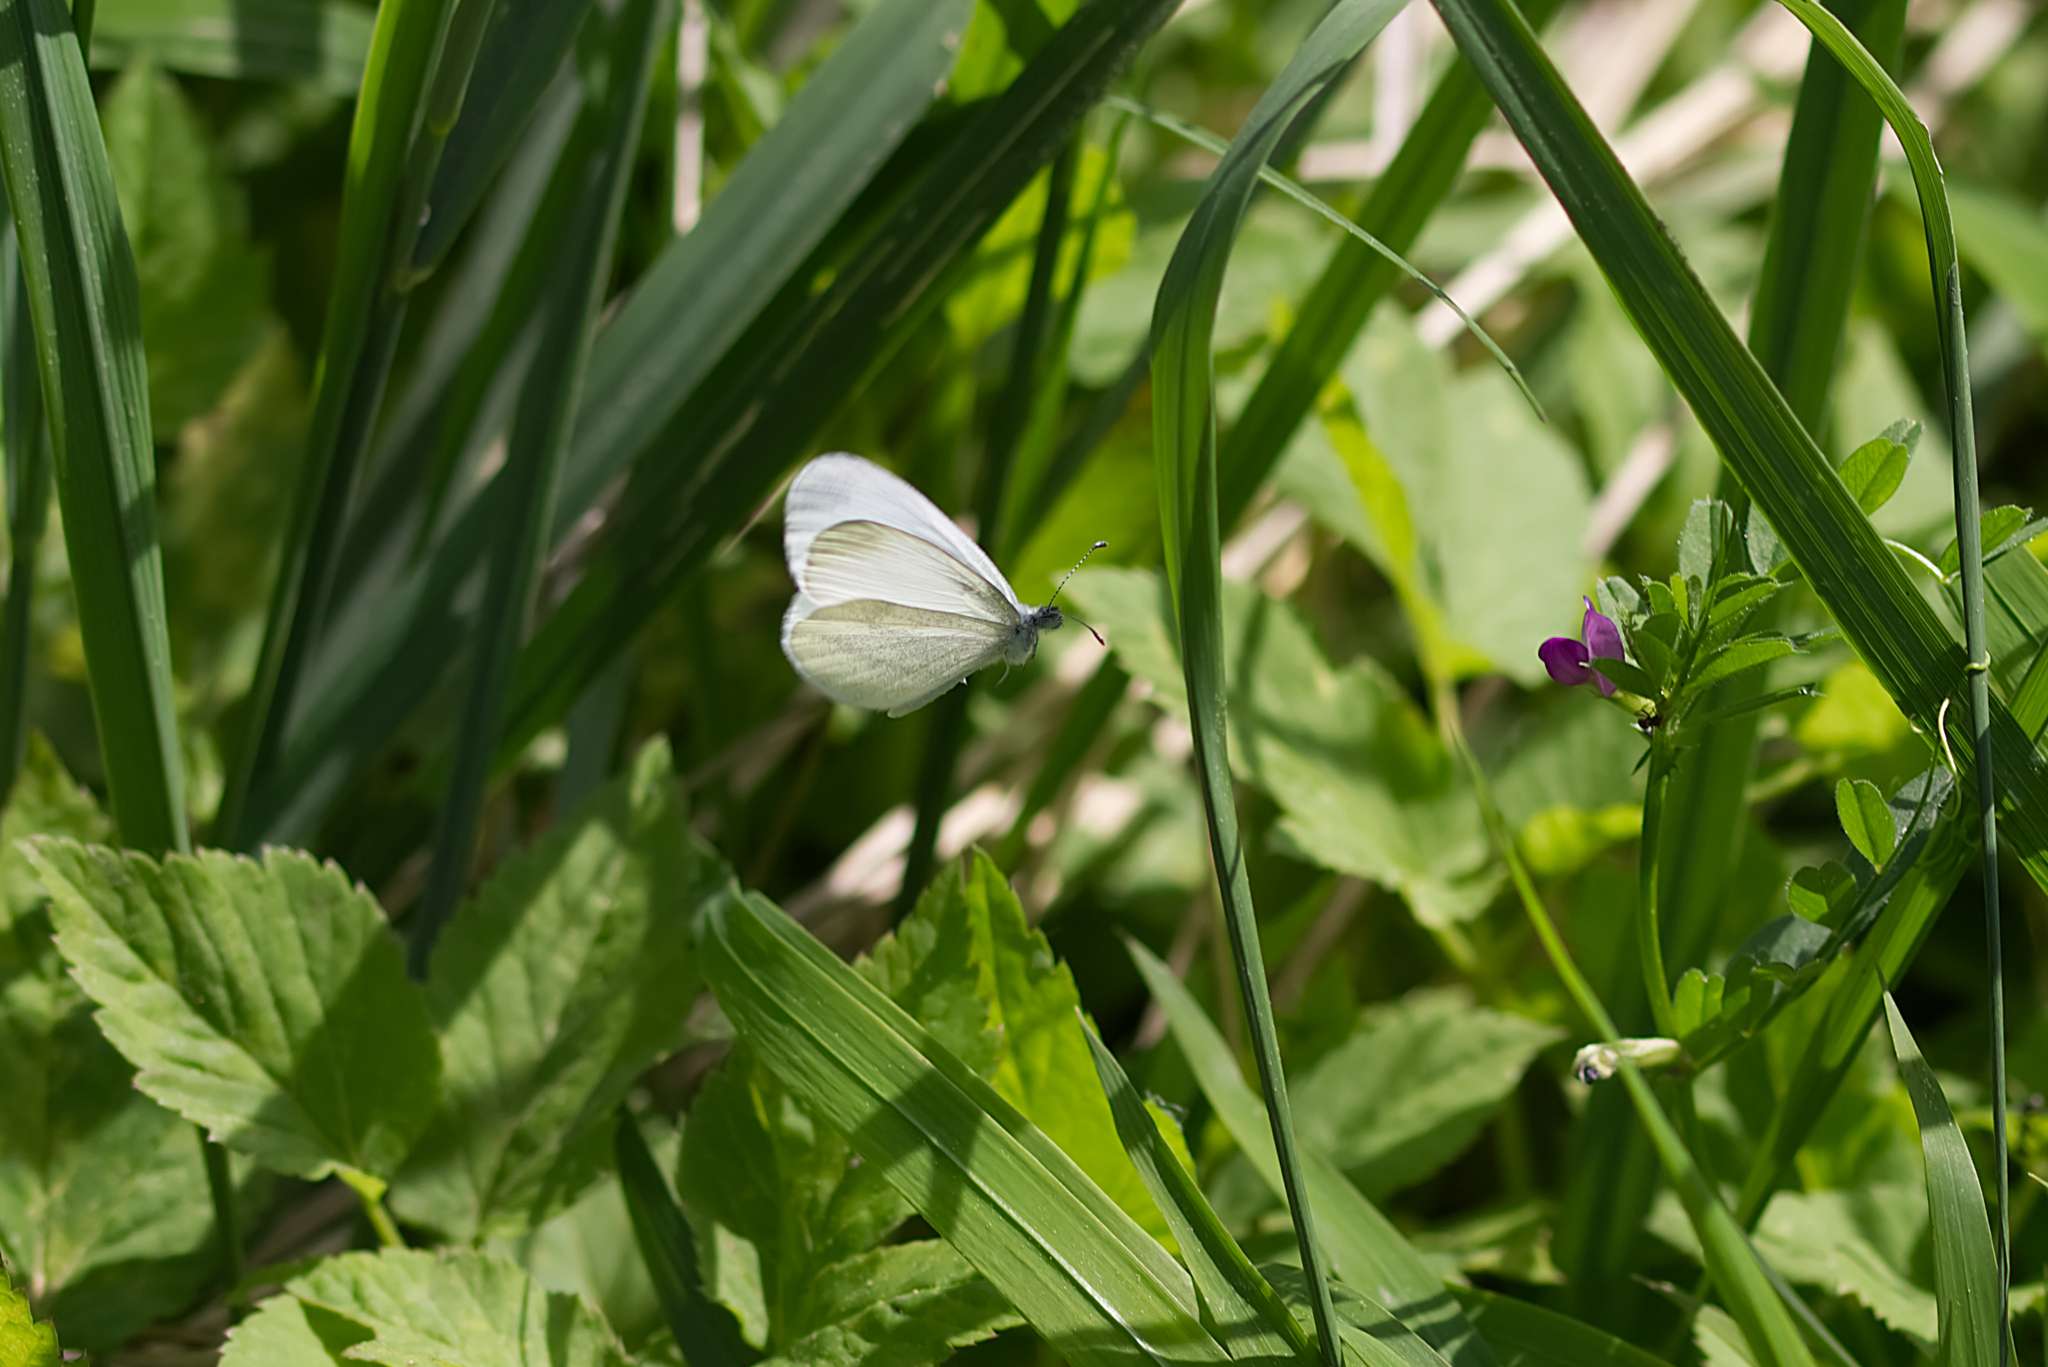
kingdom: Animalia
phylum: Arthropoda
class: Insecta
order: Lepidoptera
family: Pieridae
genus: Leptidea
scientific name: Leptidea
